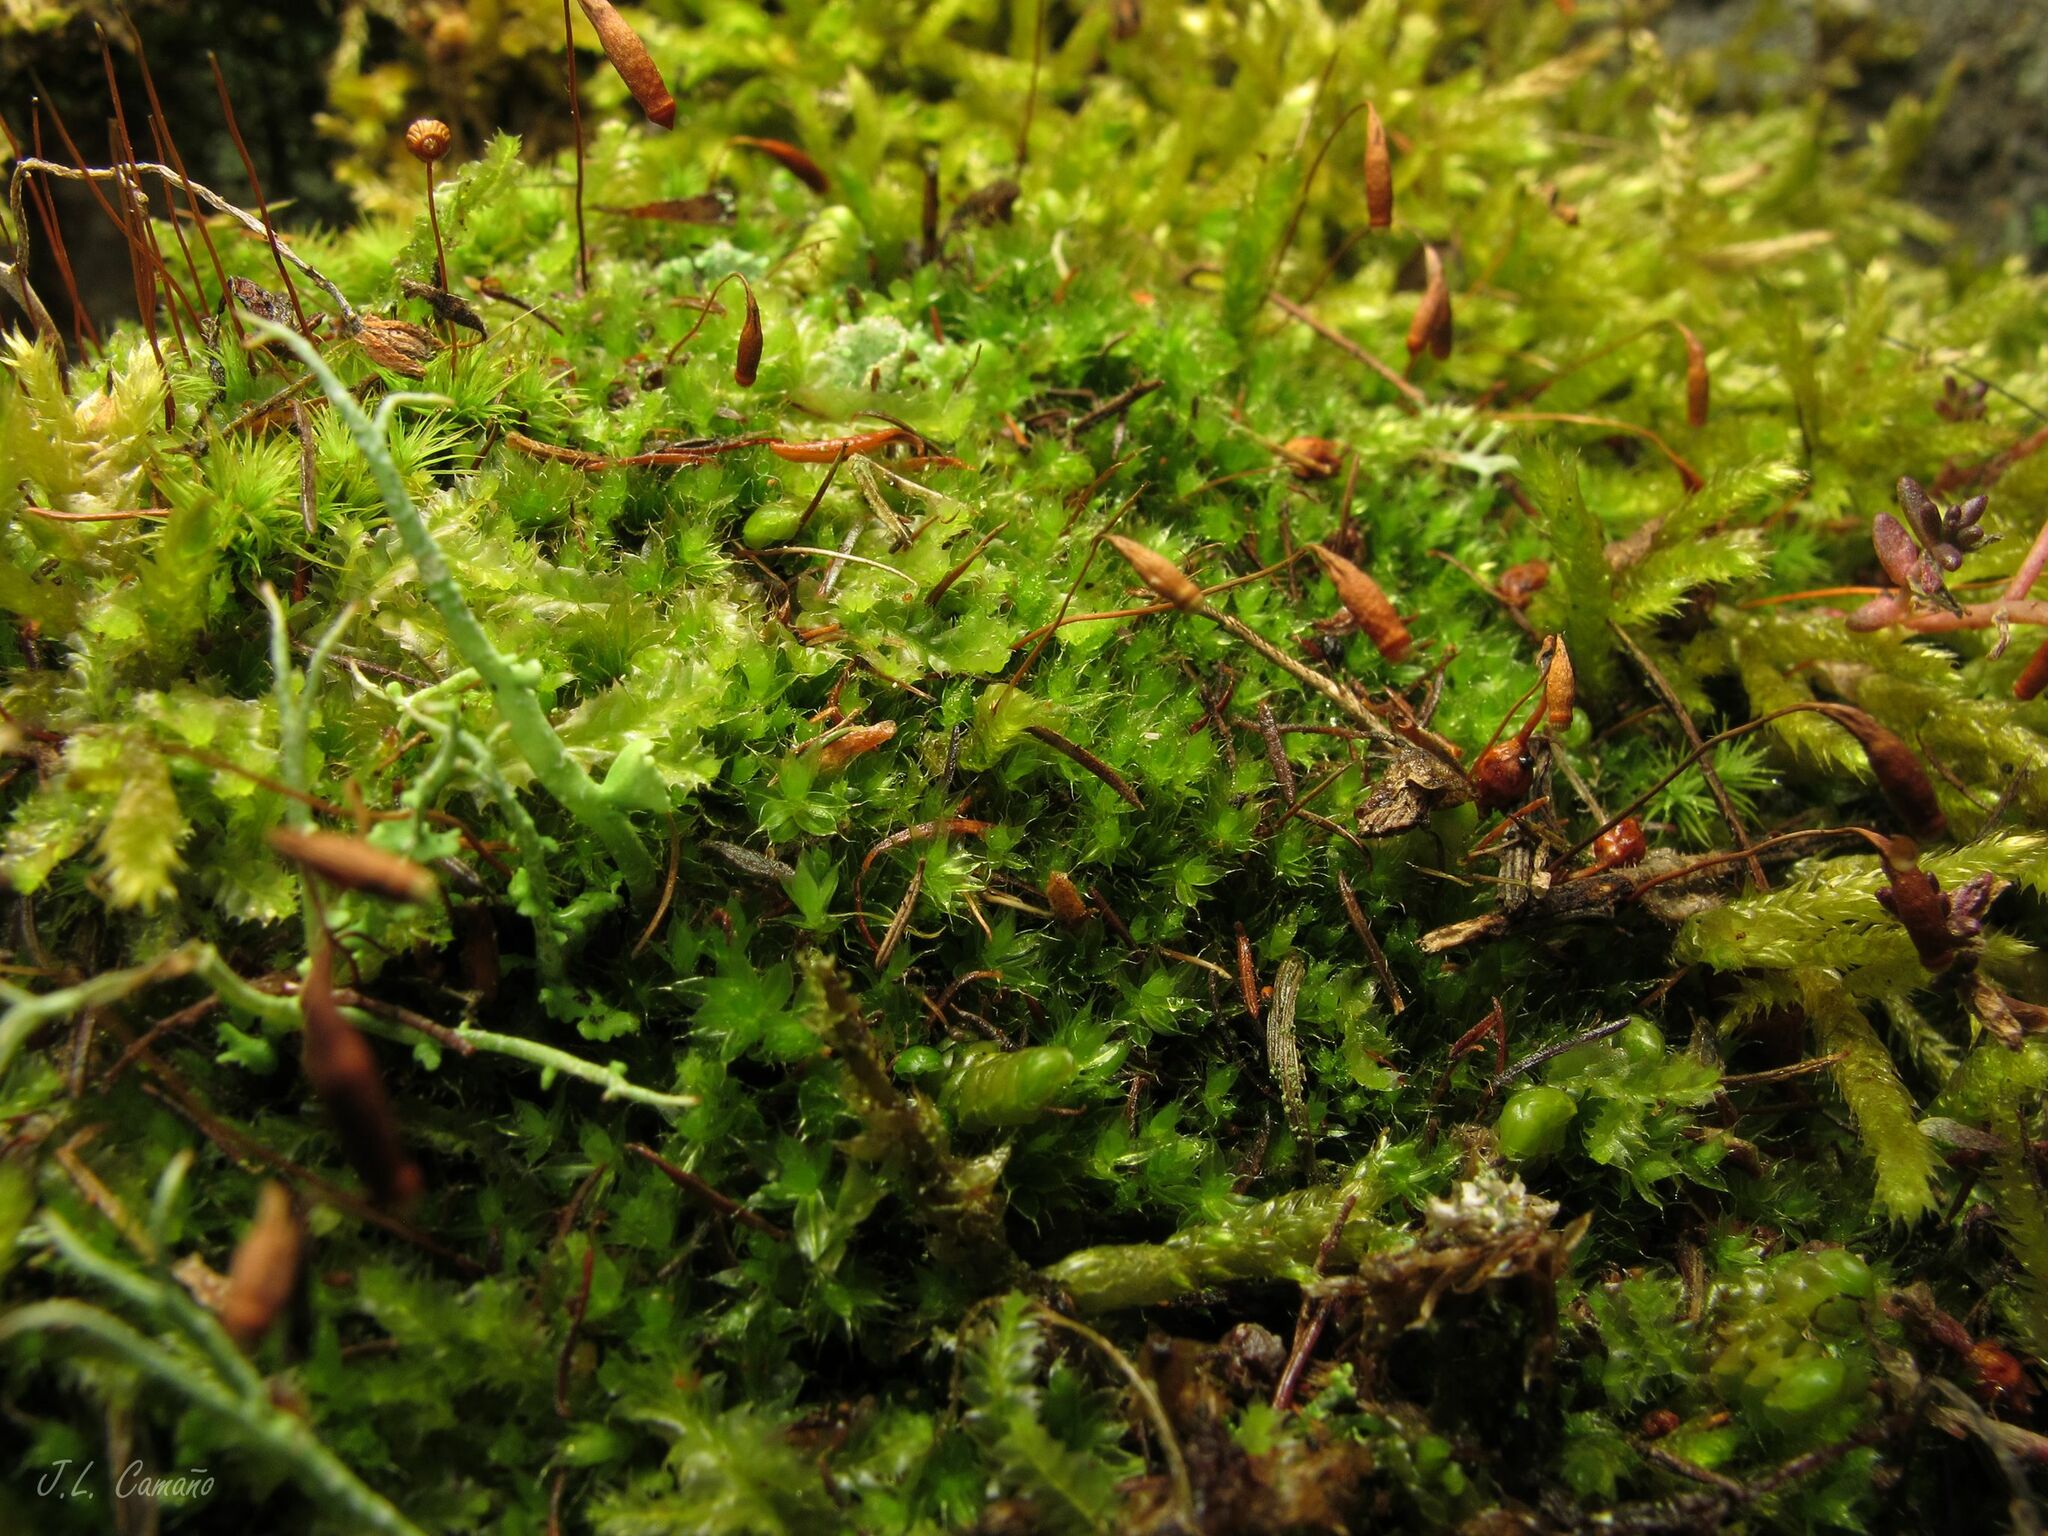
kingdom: Plantae
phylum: Bryophyta
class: Bryopsida
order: Bryales
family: Bryaceae
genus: Rosulabryum
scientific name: Rosulabryum capillare
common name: Capillary thread-moss
